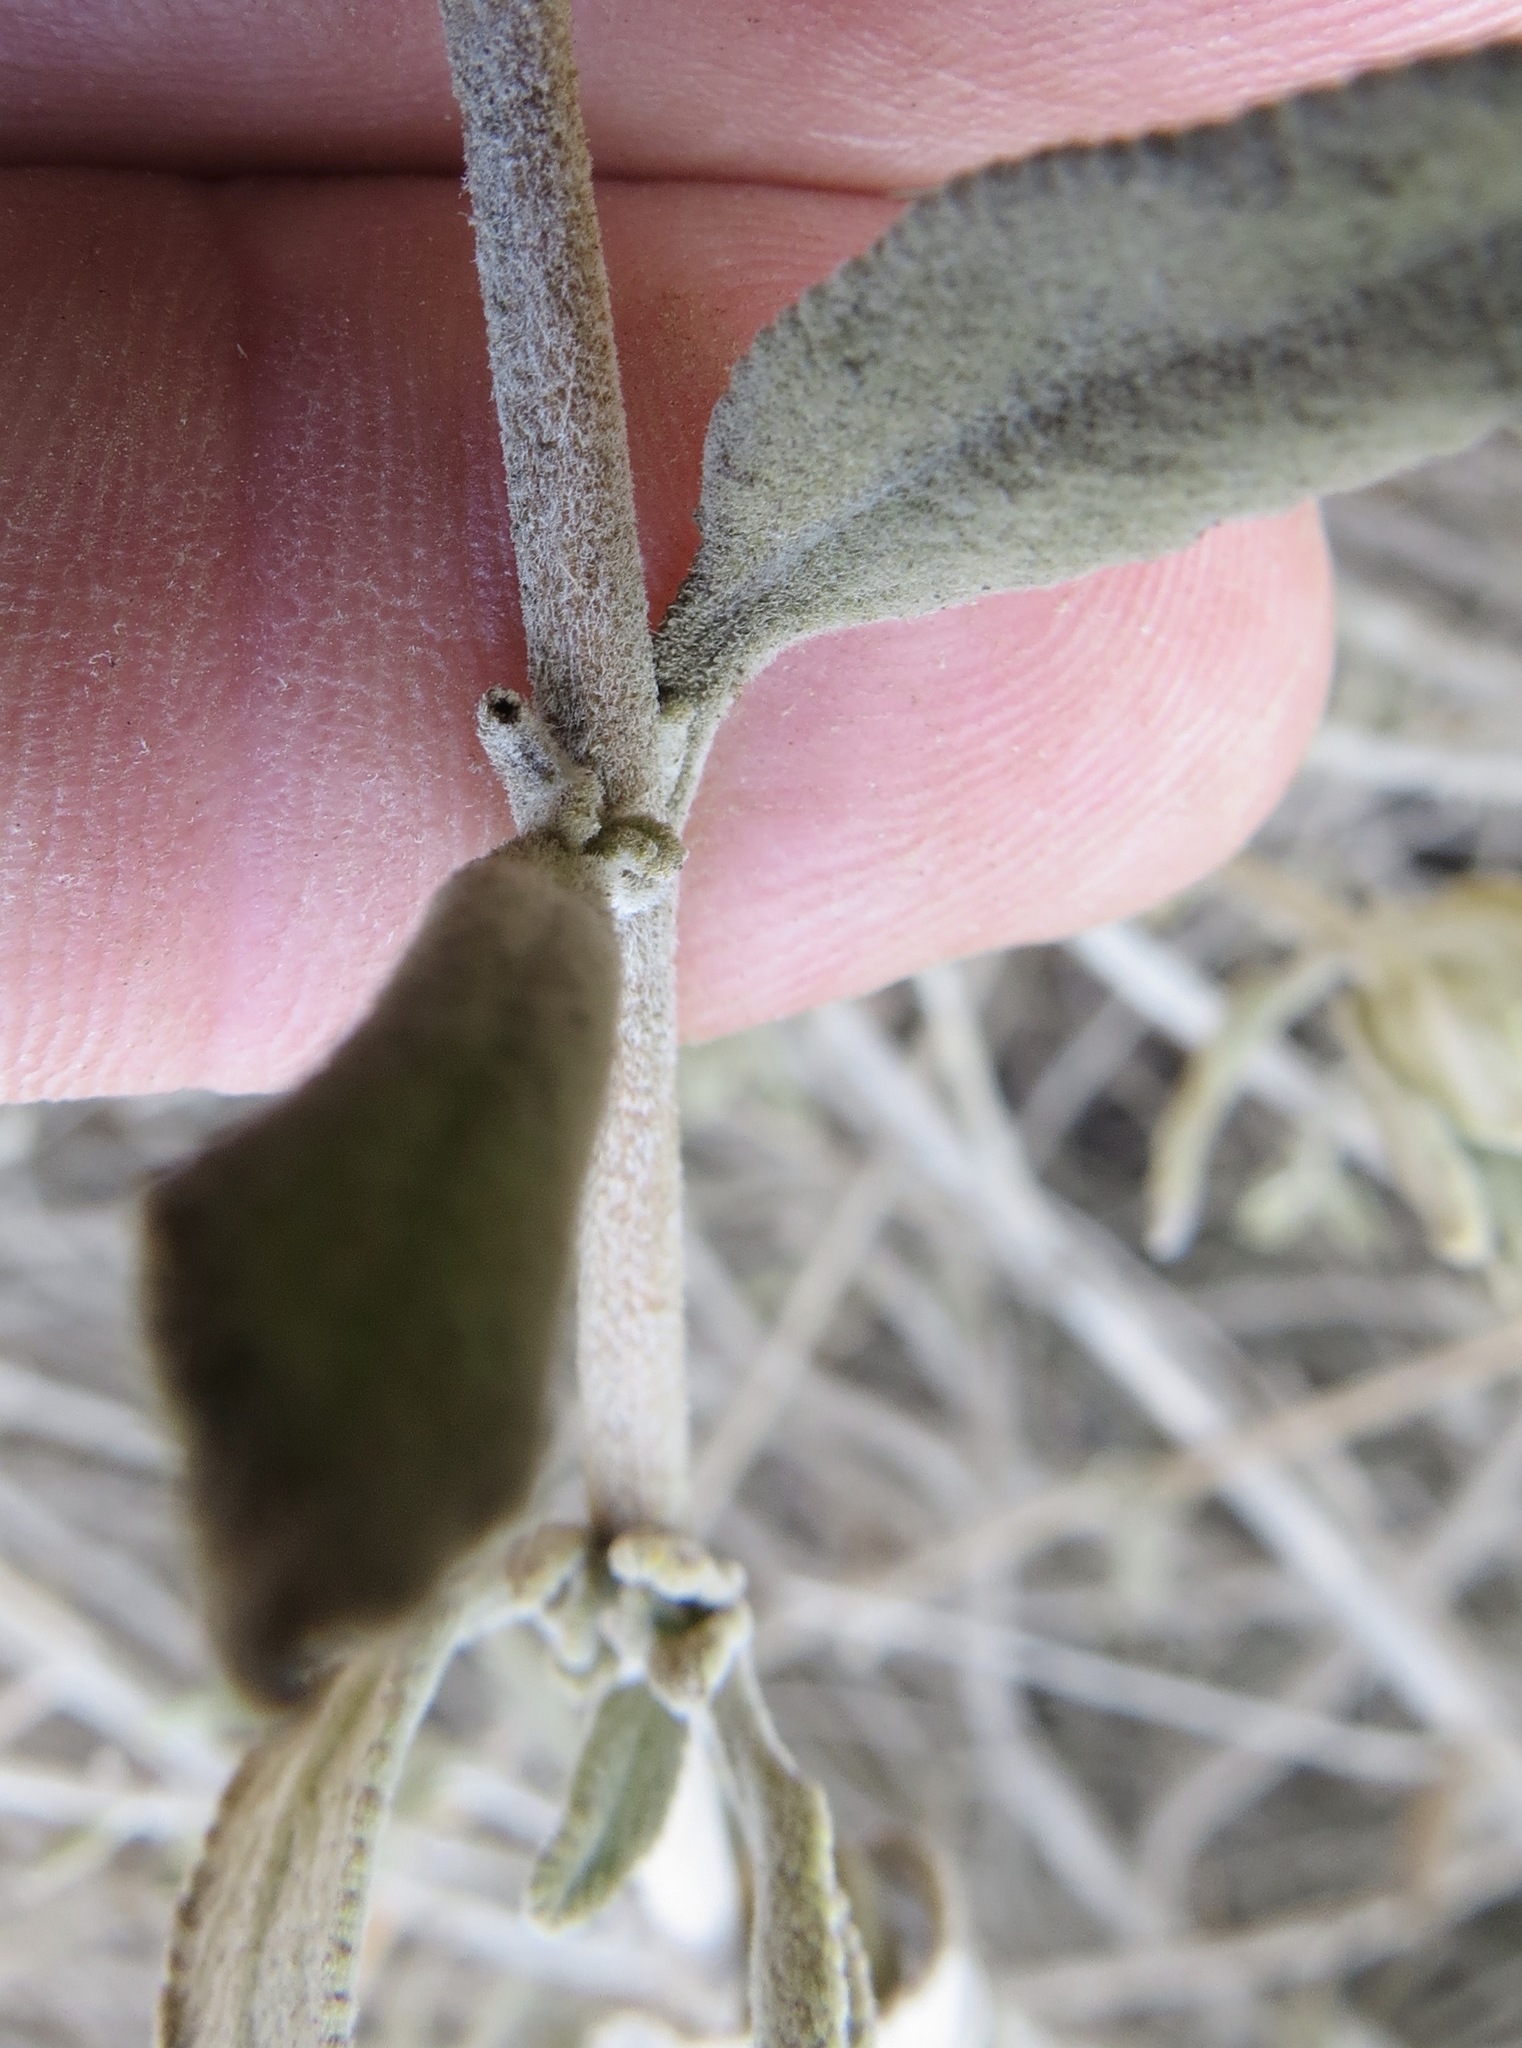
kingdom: Animalia
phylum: Arthropoda
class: Insecta
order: Diptera
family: Cecidomyiidae
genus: Rhopalomyia
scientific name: Rhopalomyia salviae
